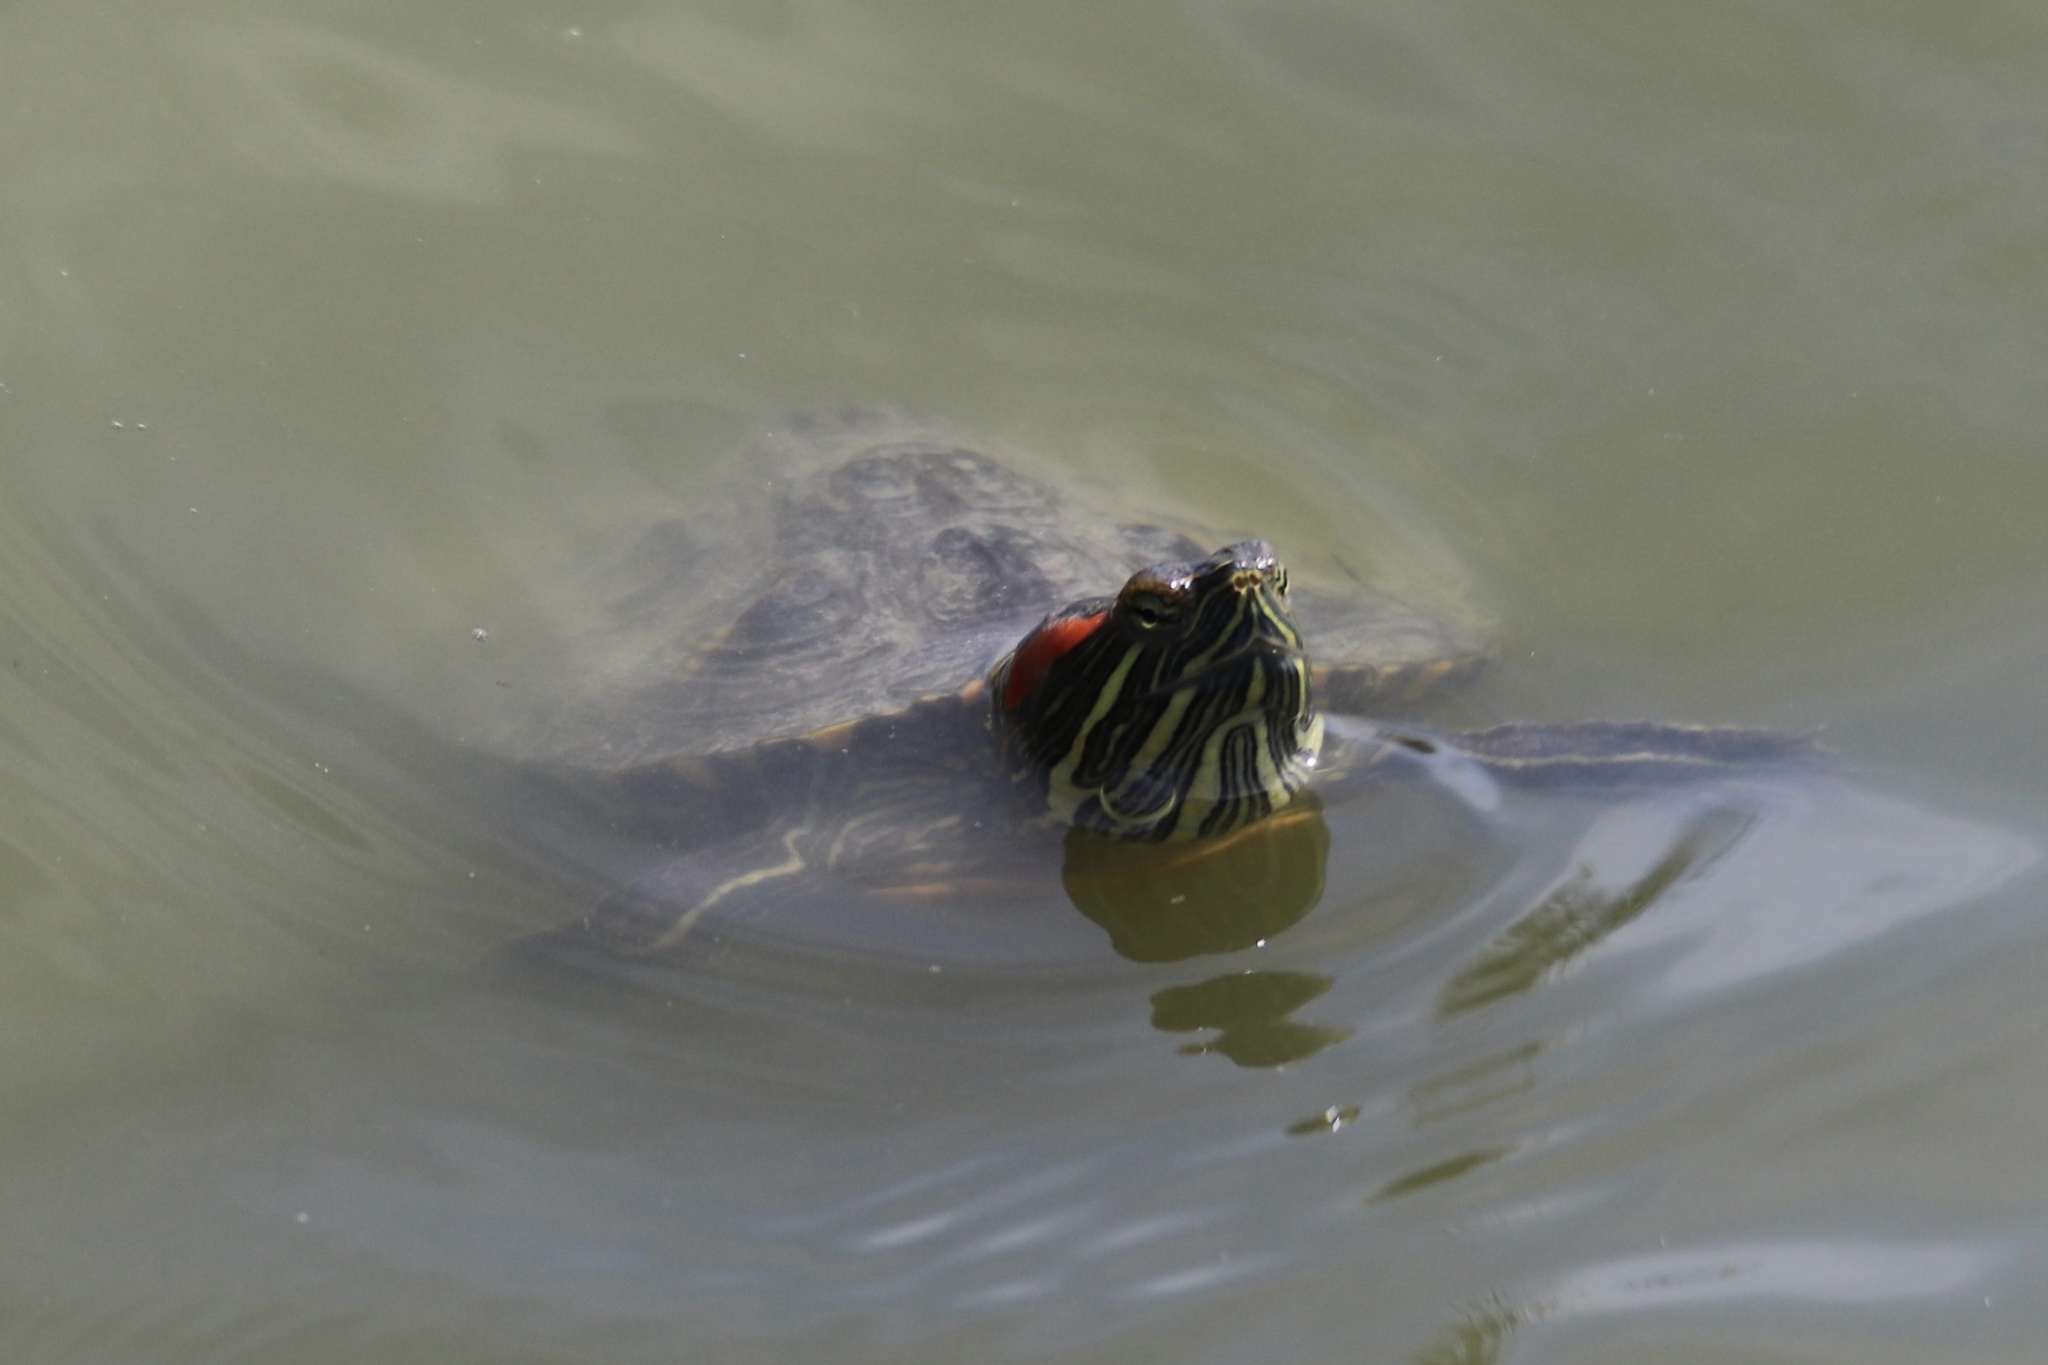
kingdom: Animalia
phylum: Chordata
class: Testudines
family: Emydidae
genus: Trachemys
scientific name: Trachemys scripta
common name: Slider
